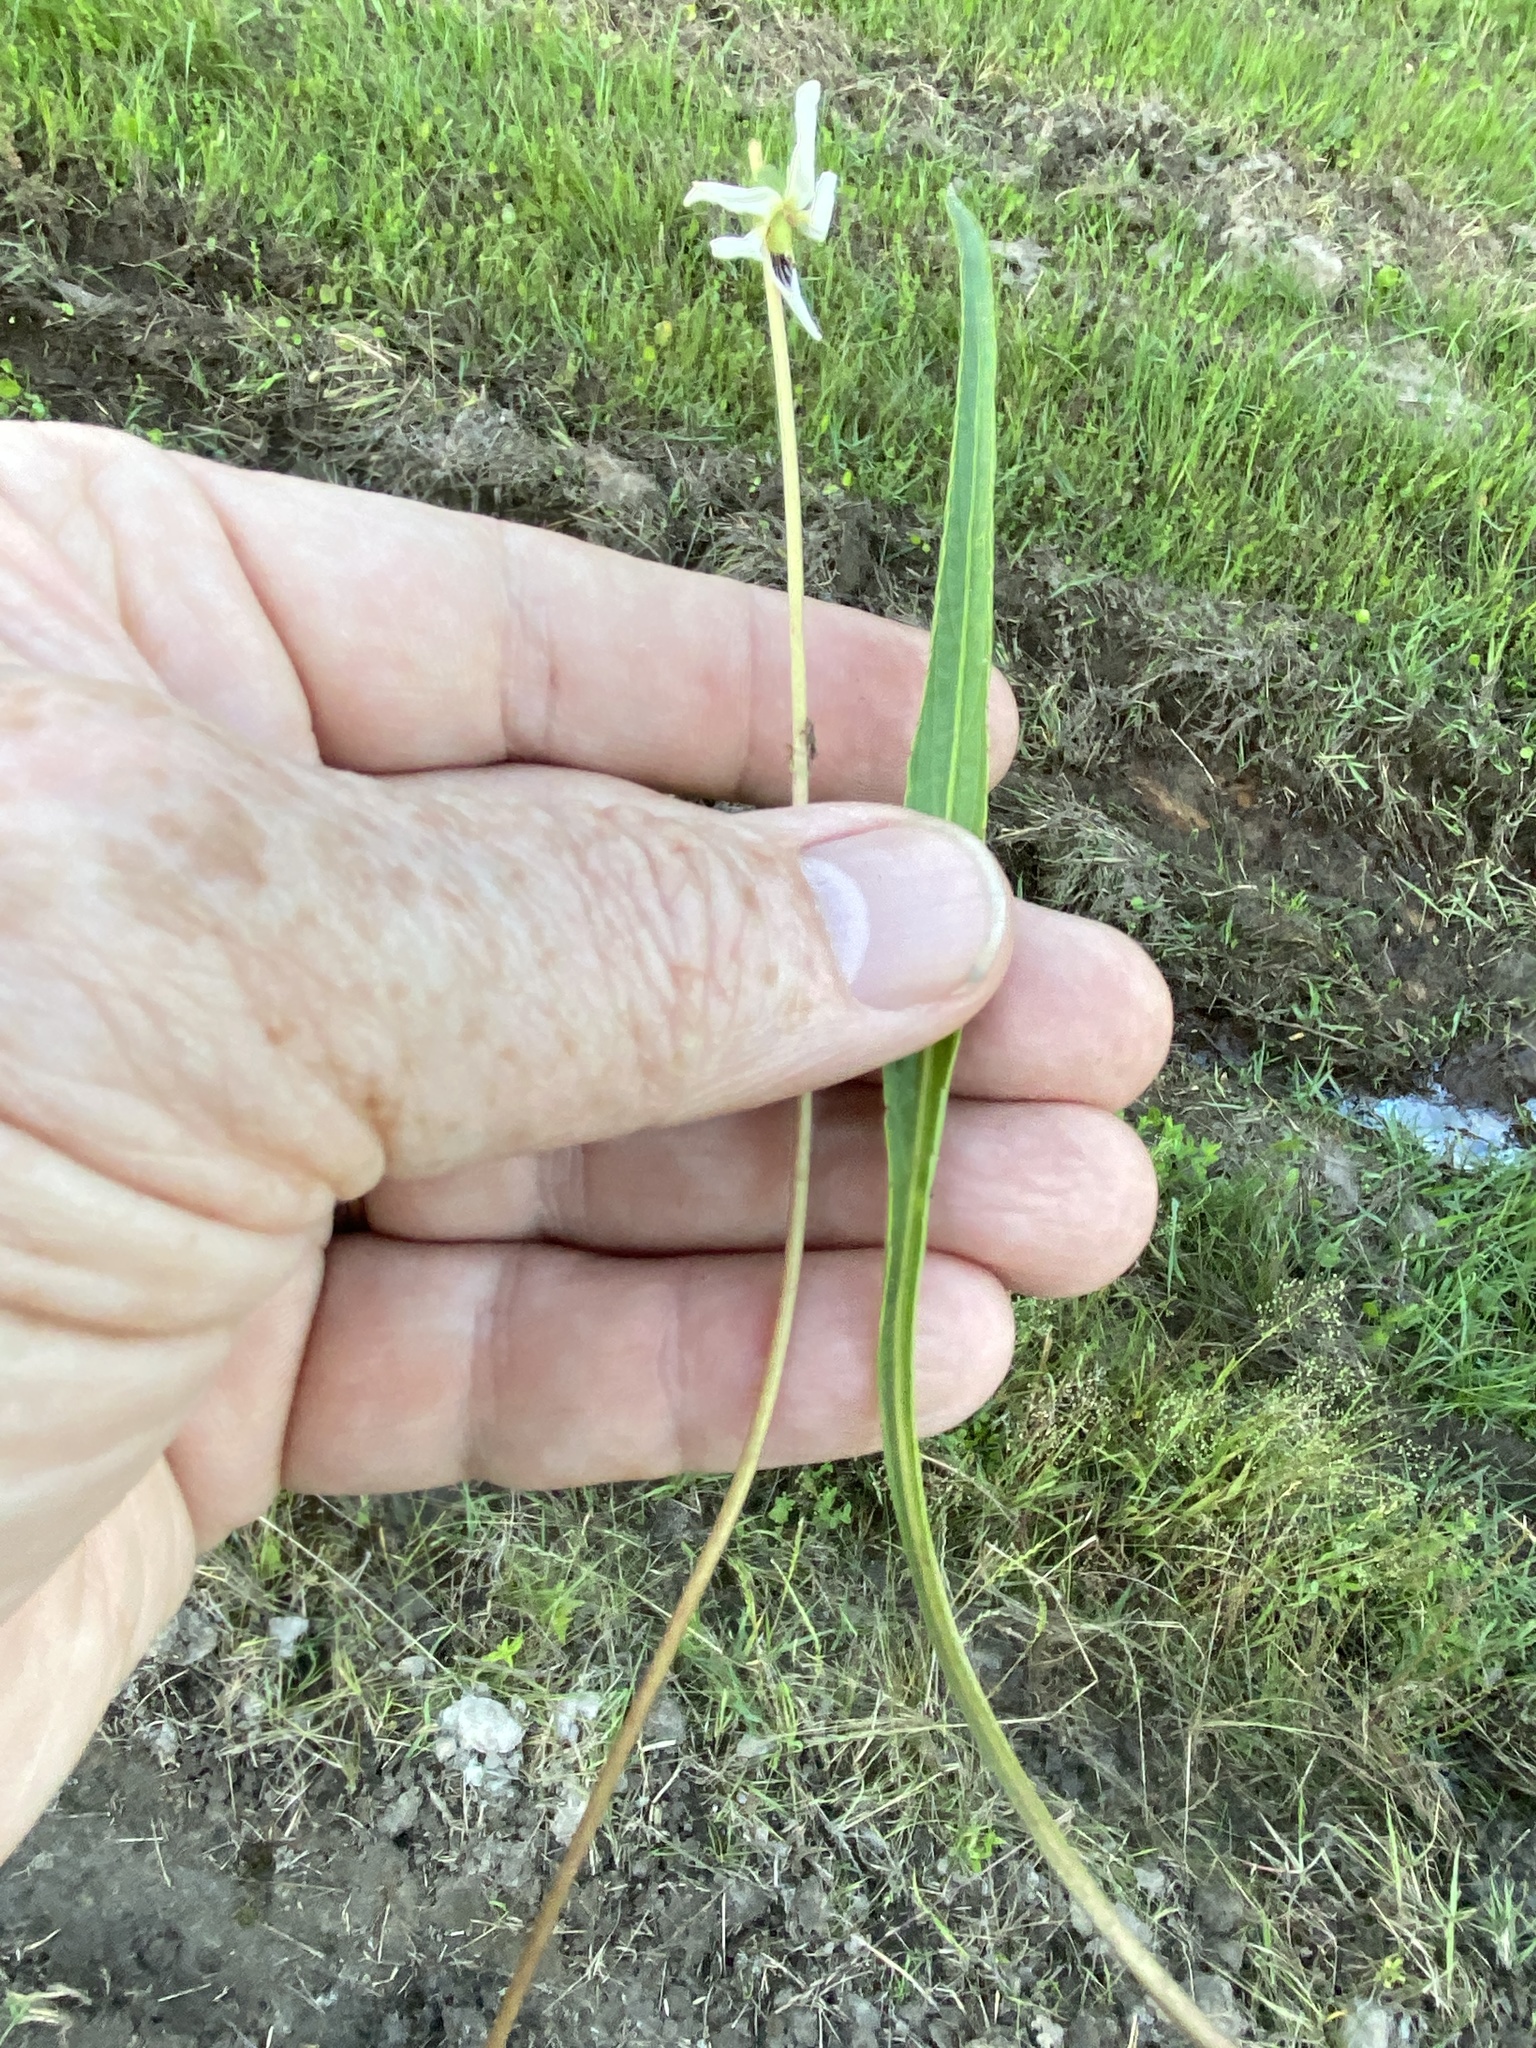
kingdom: Plantae
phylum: Tracheophyta
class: Magnoliopsida
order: Malpighiales
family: Violaceae
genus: Viola
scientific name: Viola lanceolata
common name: Bog white violet
